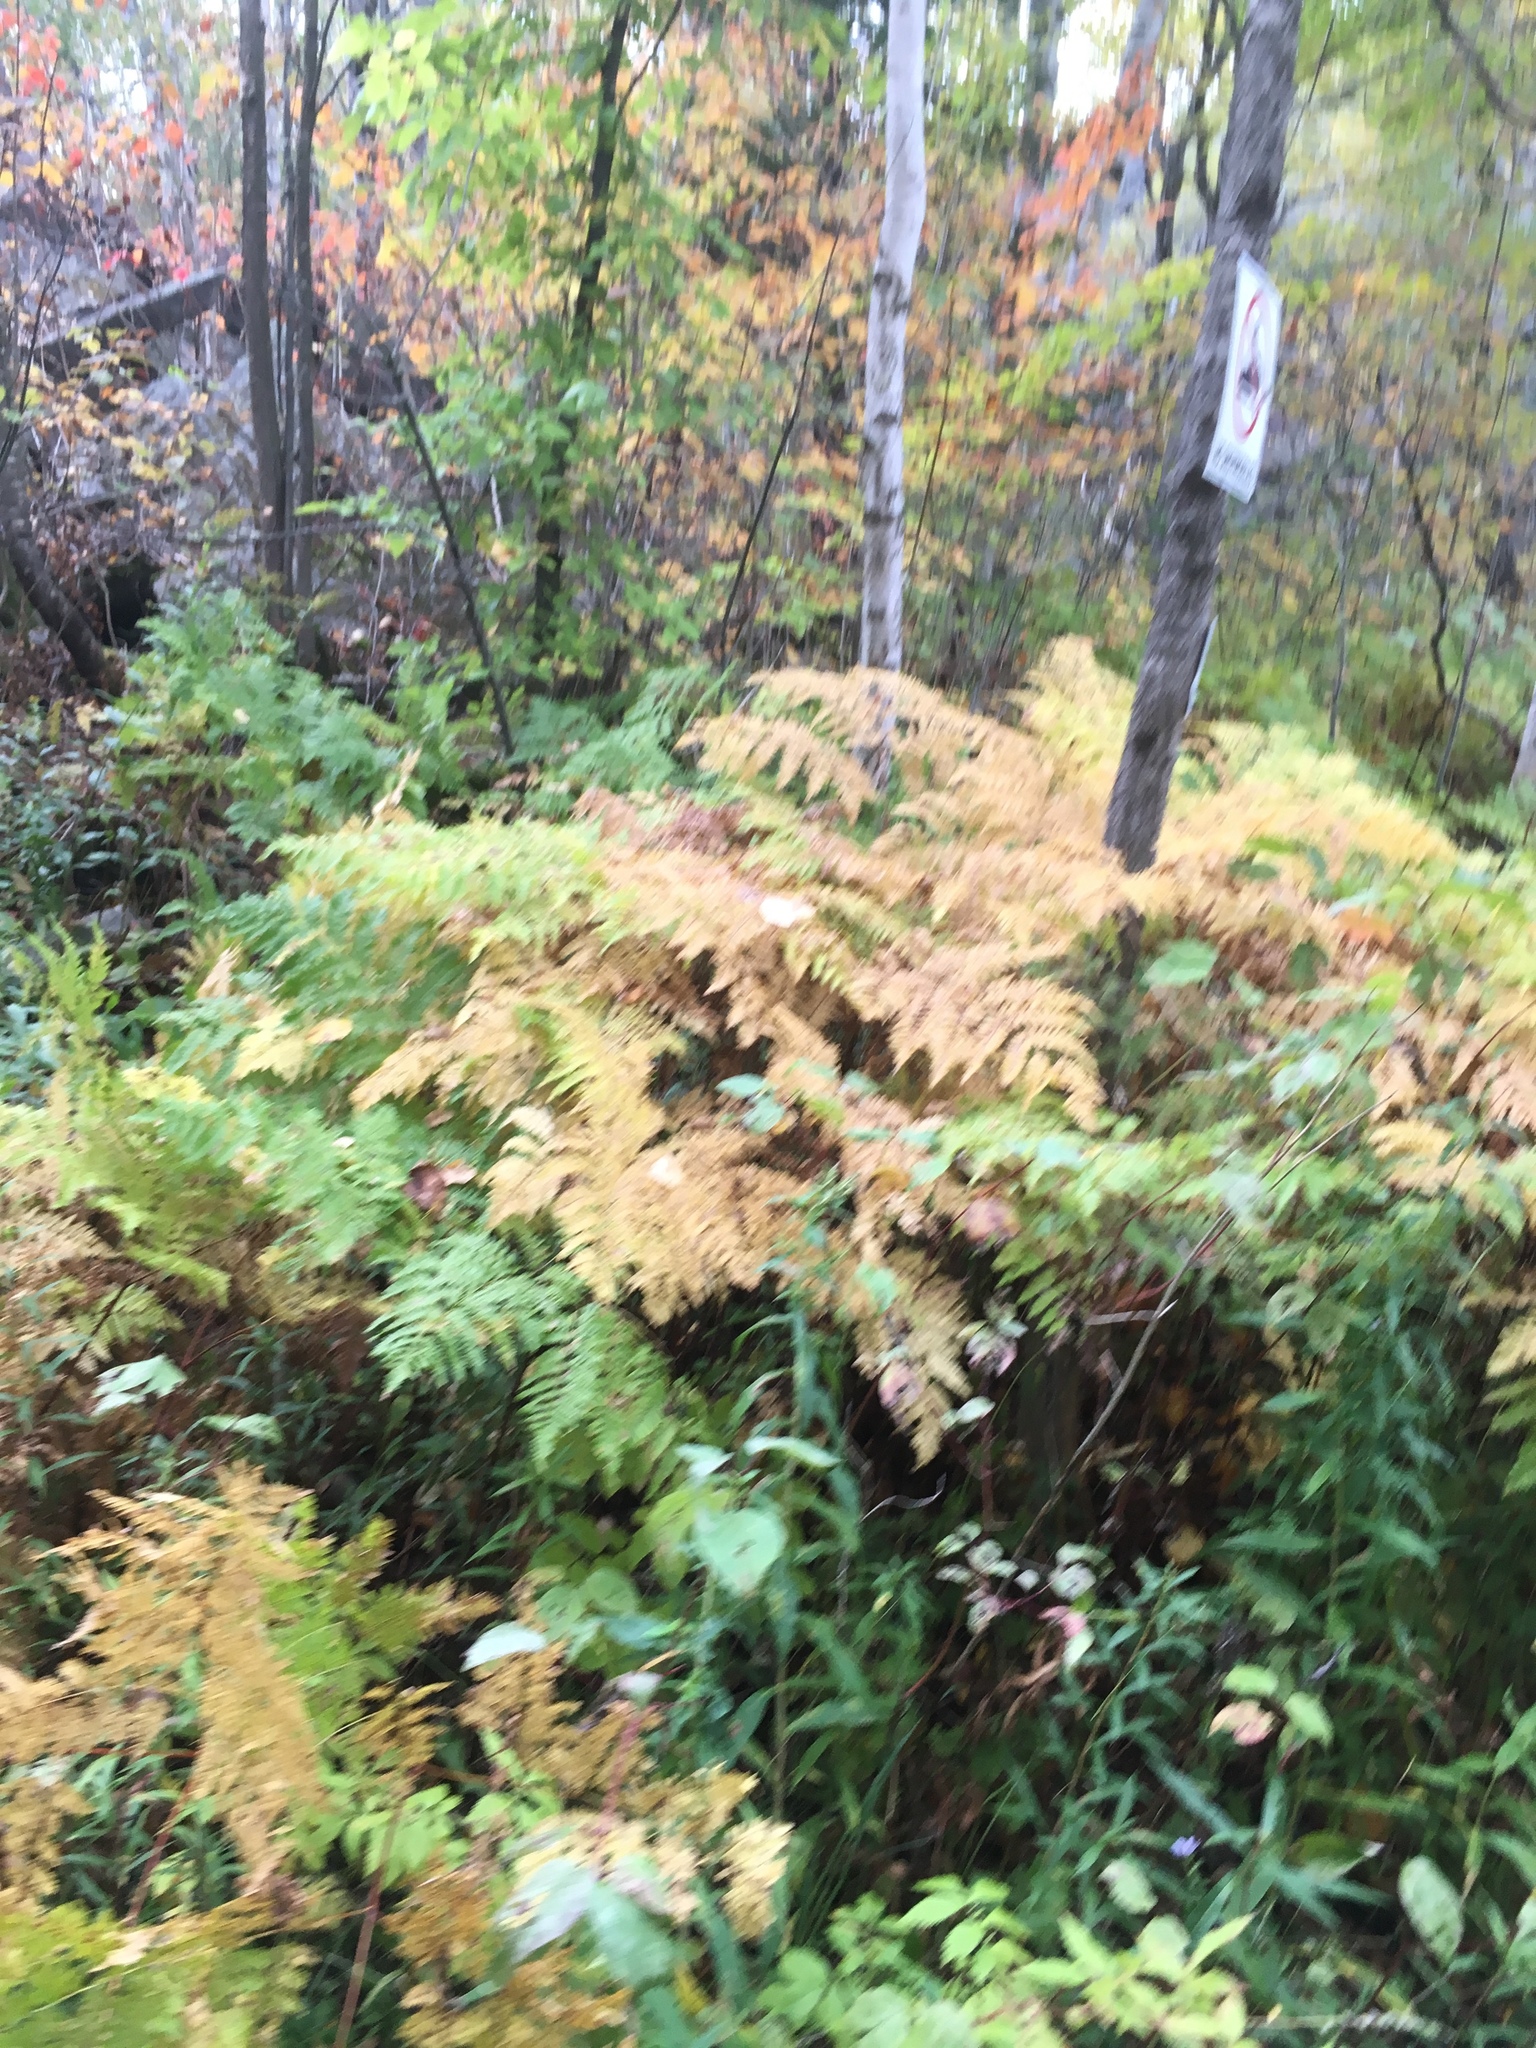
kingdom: Plantae
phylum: Tracheophyta
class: Polypodiopsida
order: Polypodiales
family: Dennstaedtiaceae
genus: Pteridium
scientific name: Pteridium aquilinum
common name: Bracken
